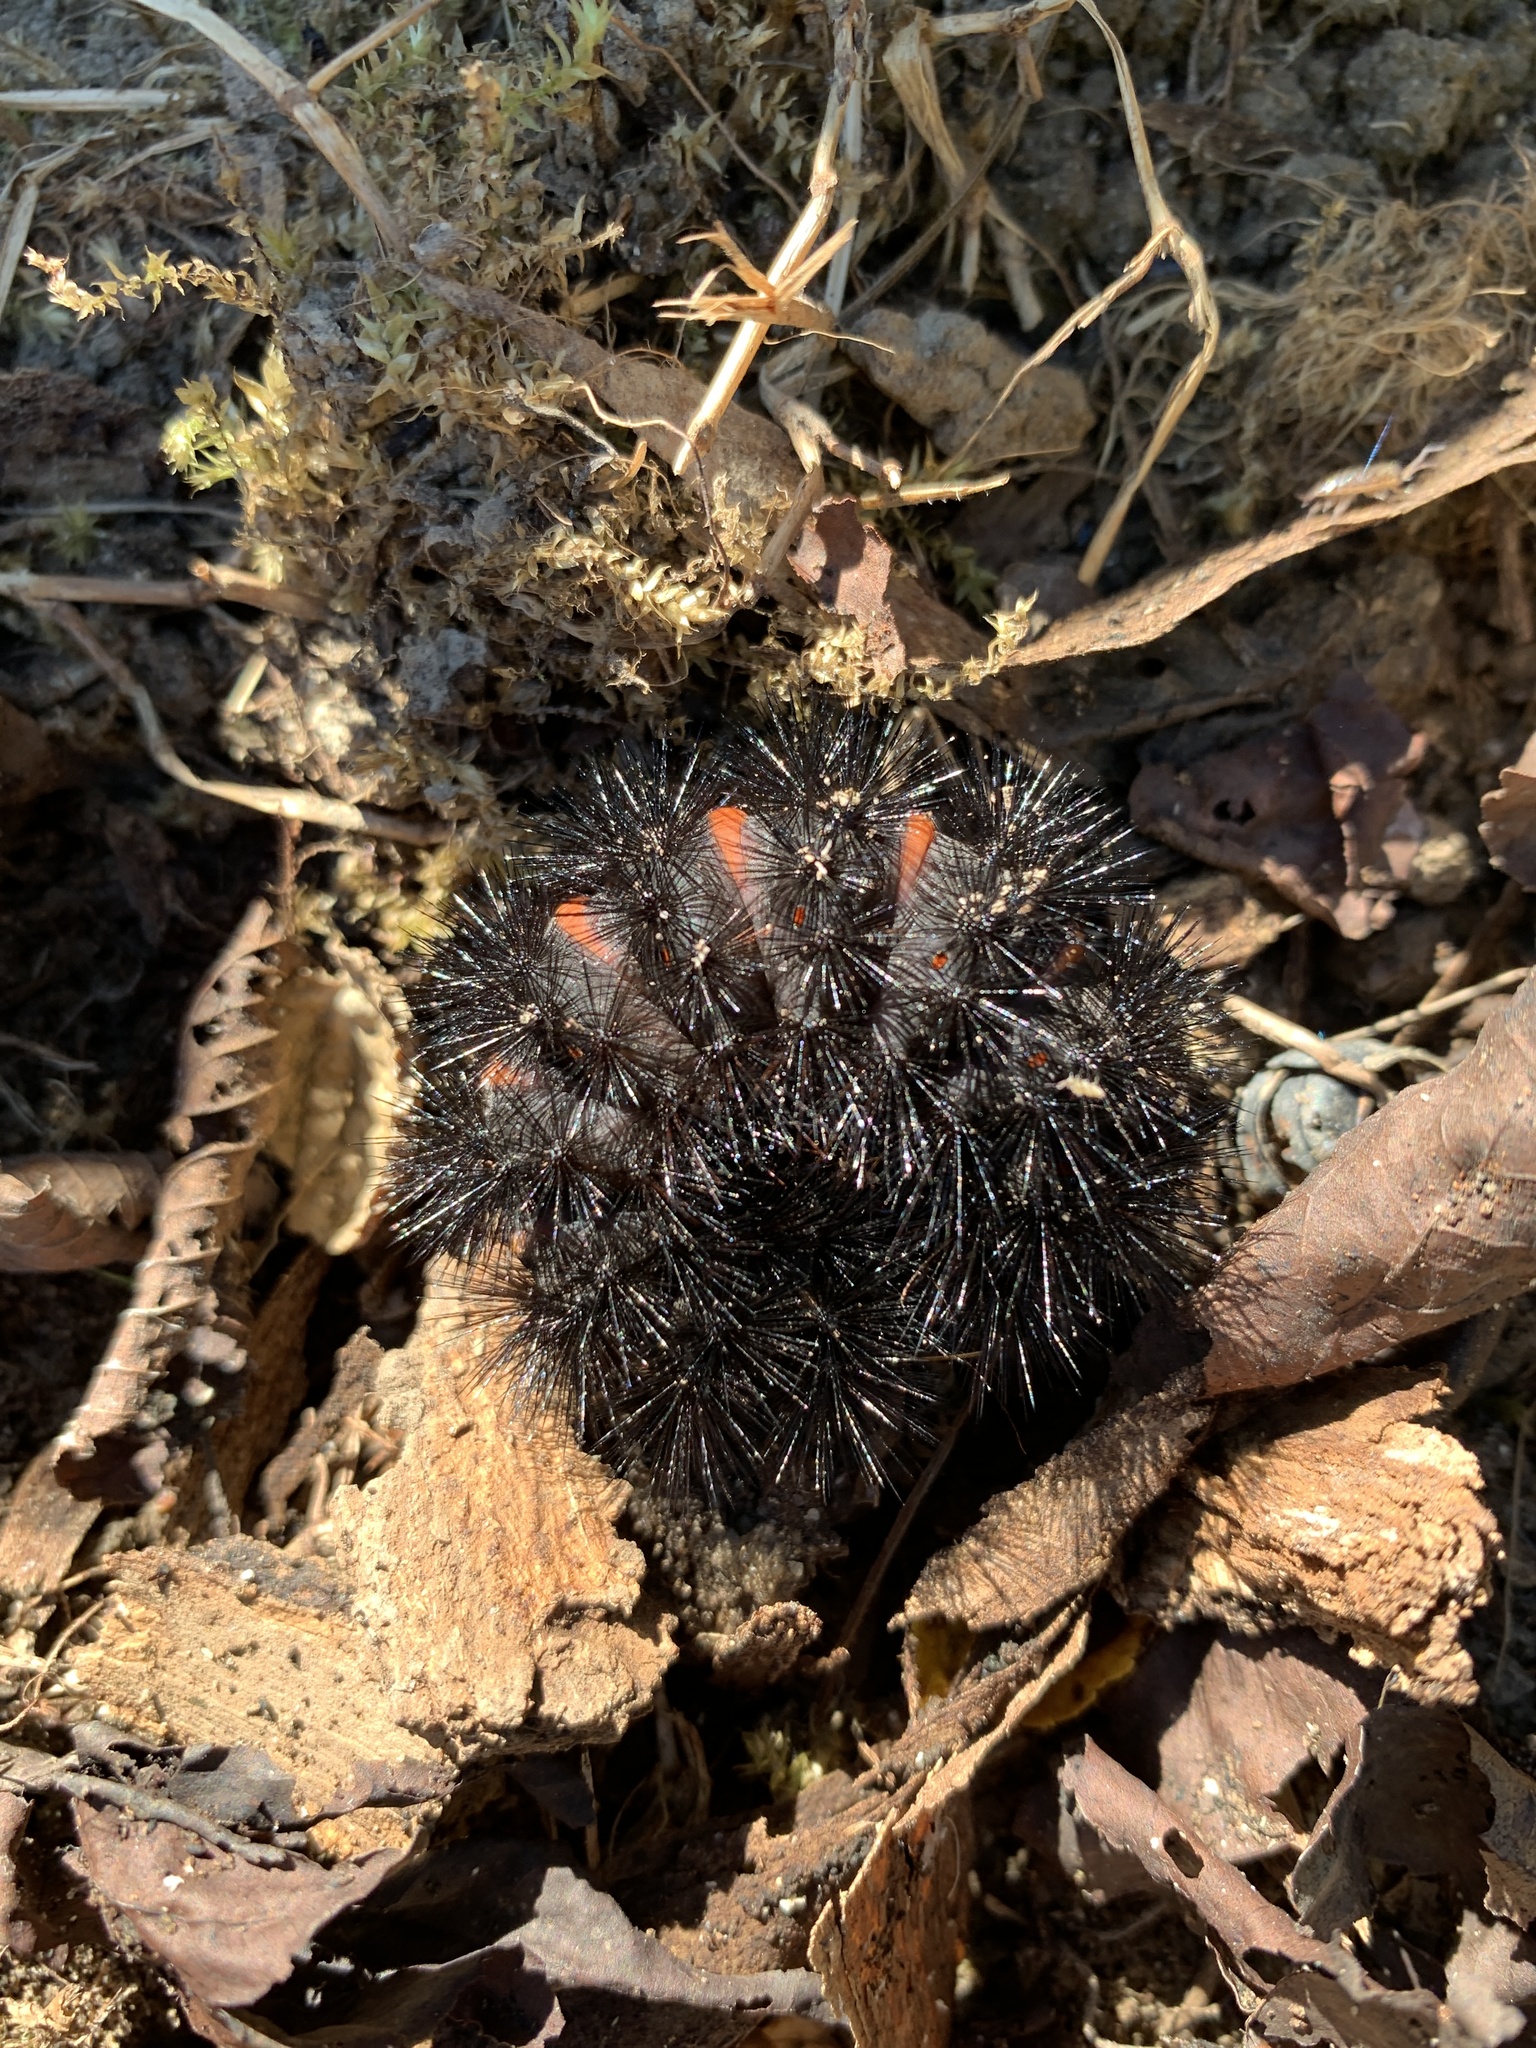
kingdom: Animalia
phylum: Arthropoda
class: Insecta
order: Lepidoptera
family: Erebidae
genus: Hypercompe
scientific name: Hypercompe scribonia
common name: Giant leopard moth
